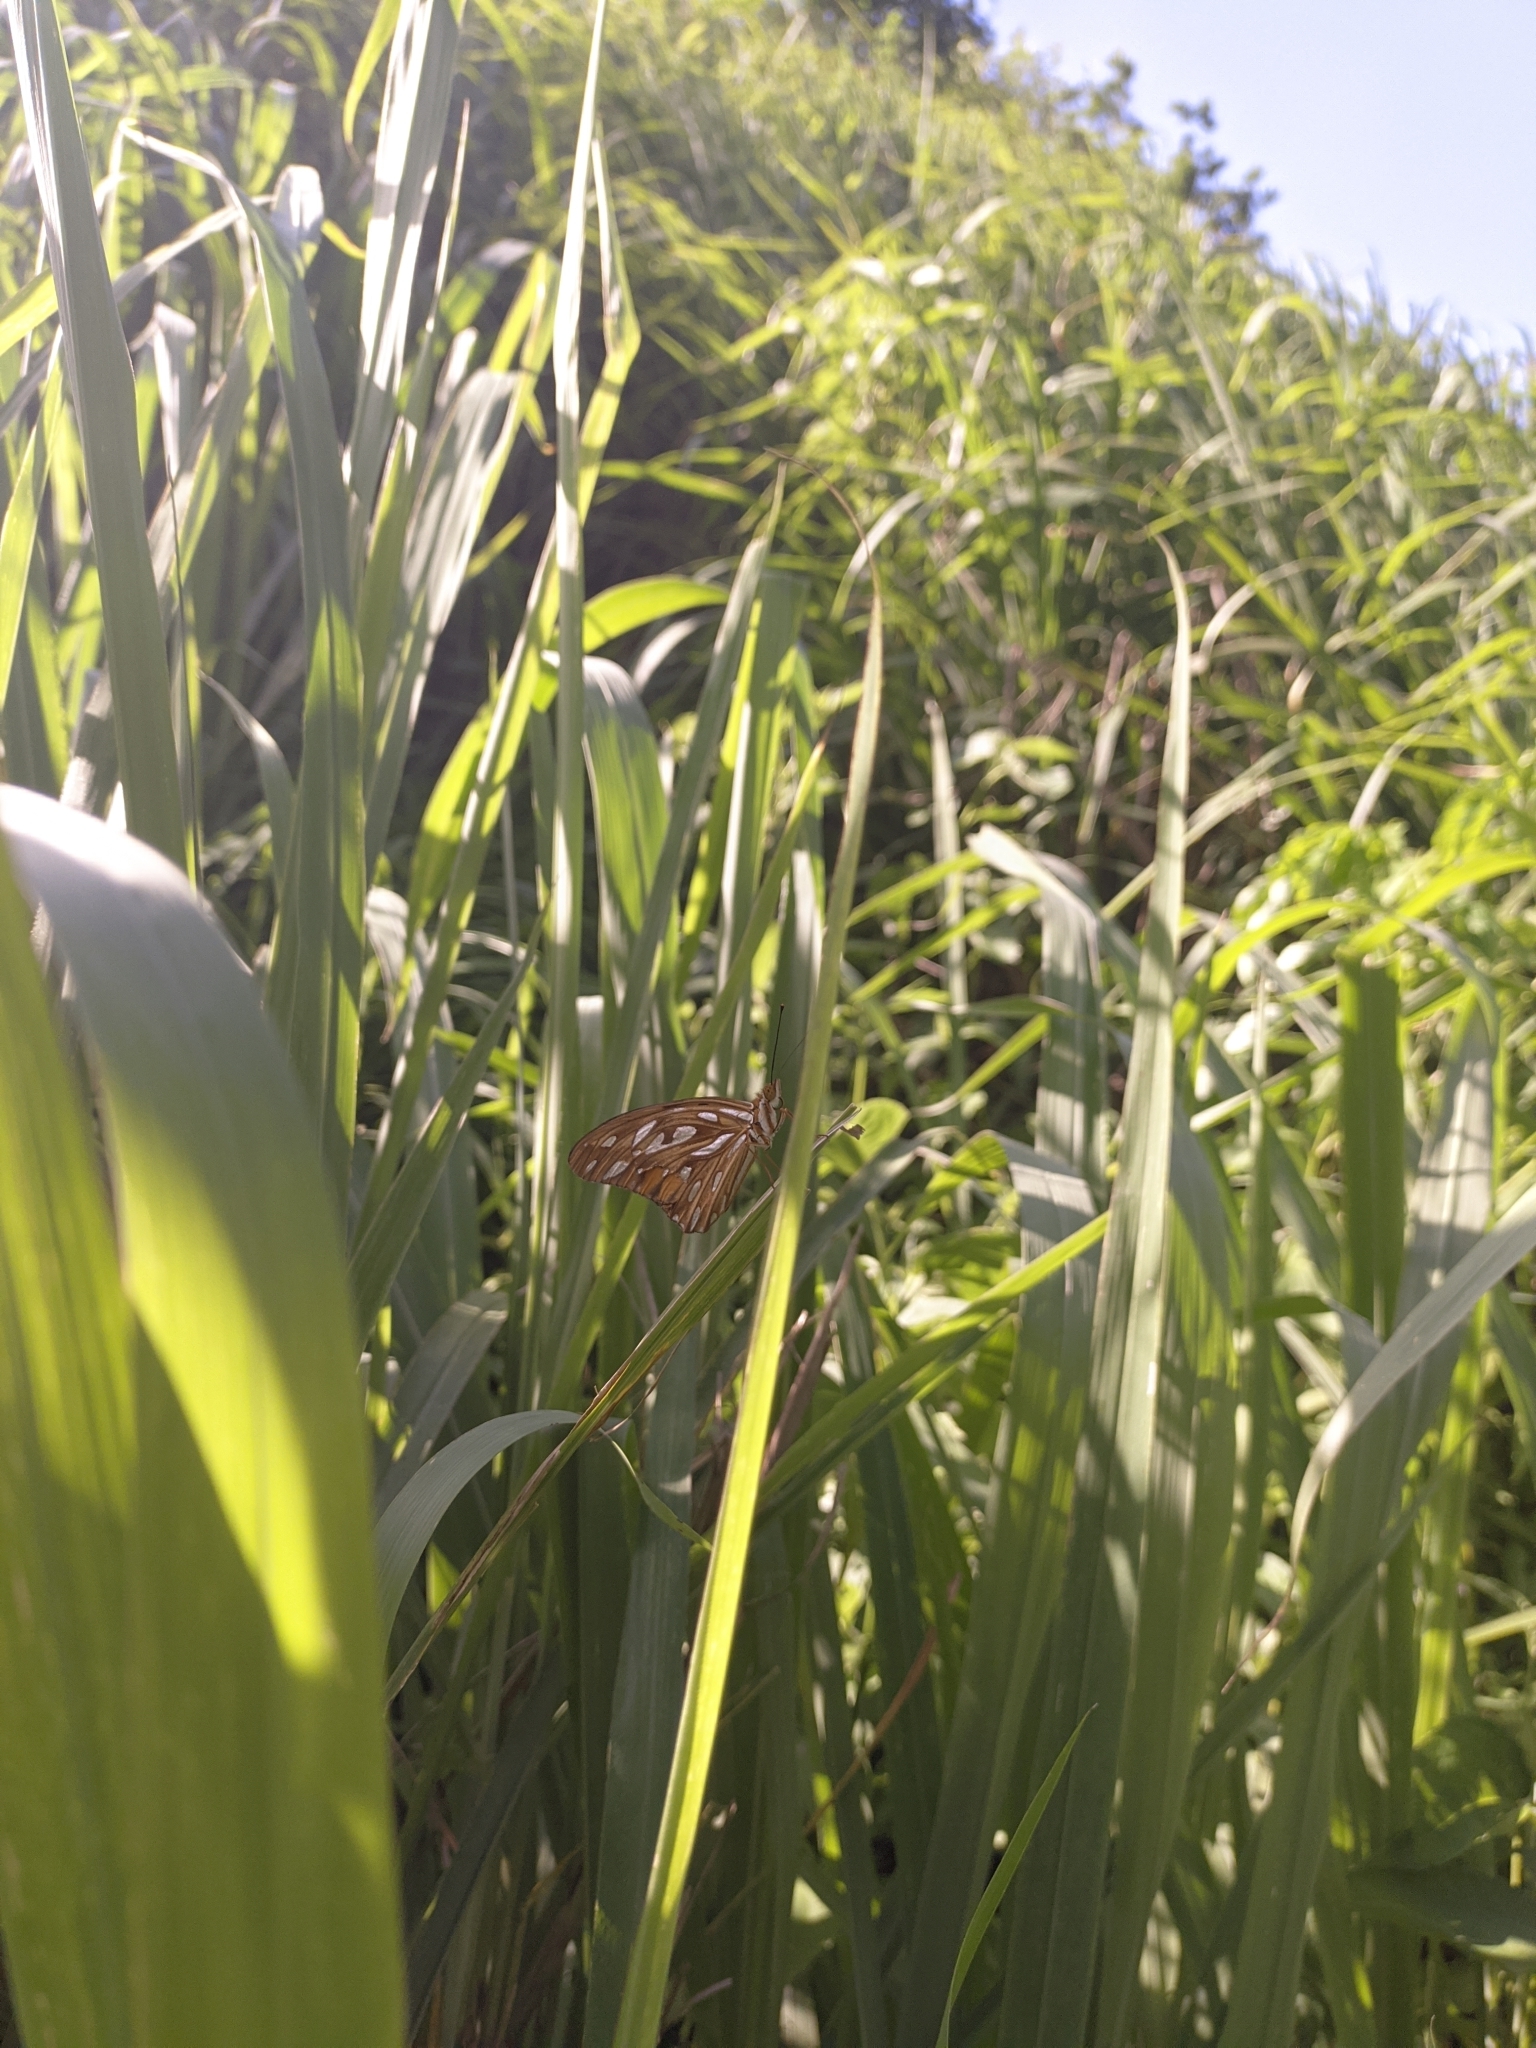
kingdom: Animalia
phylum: Arthropoda
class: Insecta
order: Lepidoptera
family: Nymphalidae
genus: Dione
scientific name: Dione vanillae
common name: Gulf fritillary
